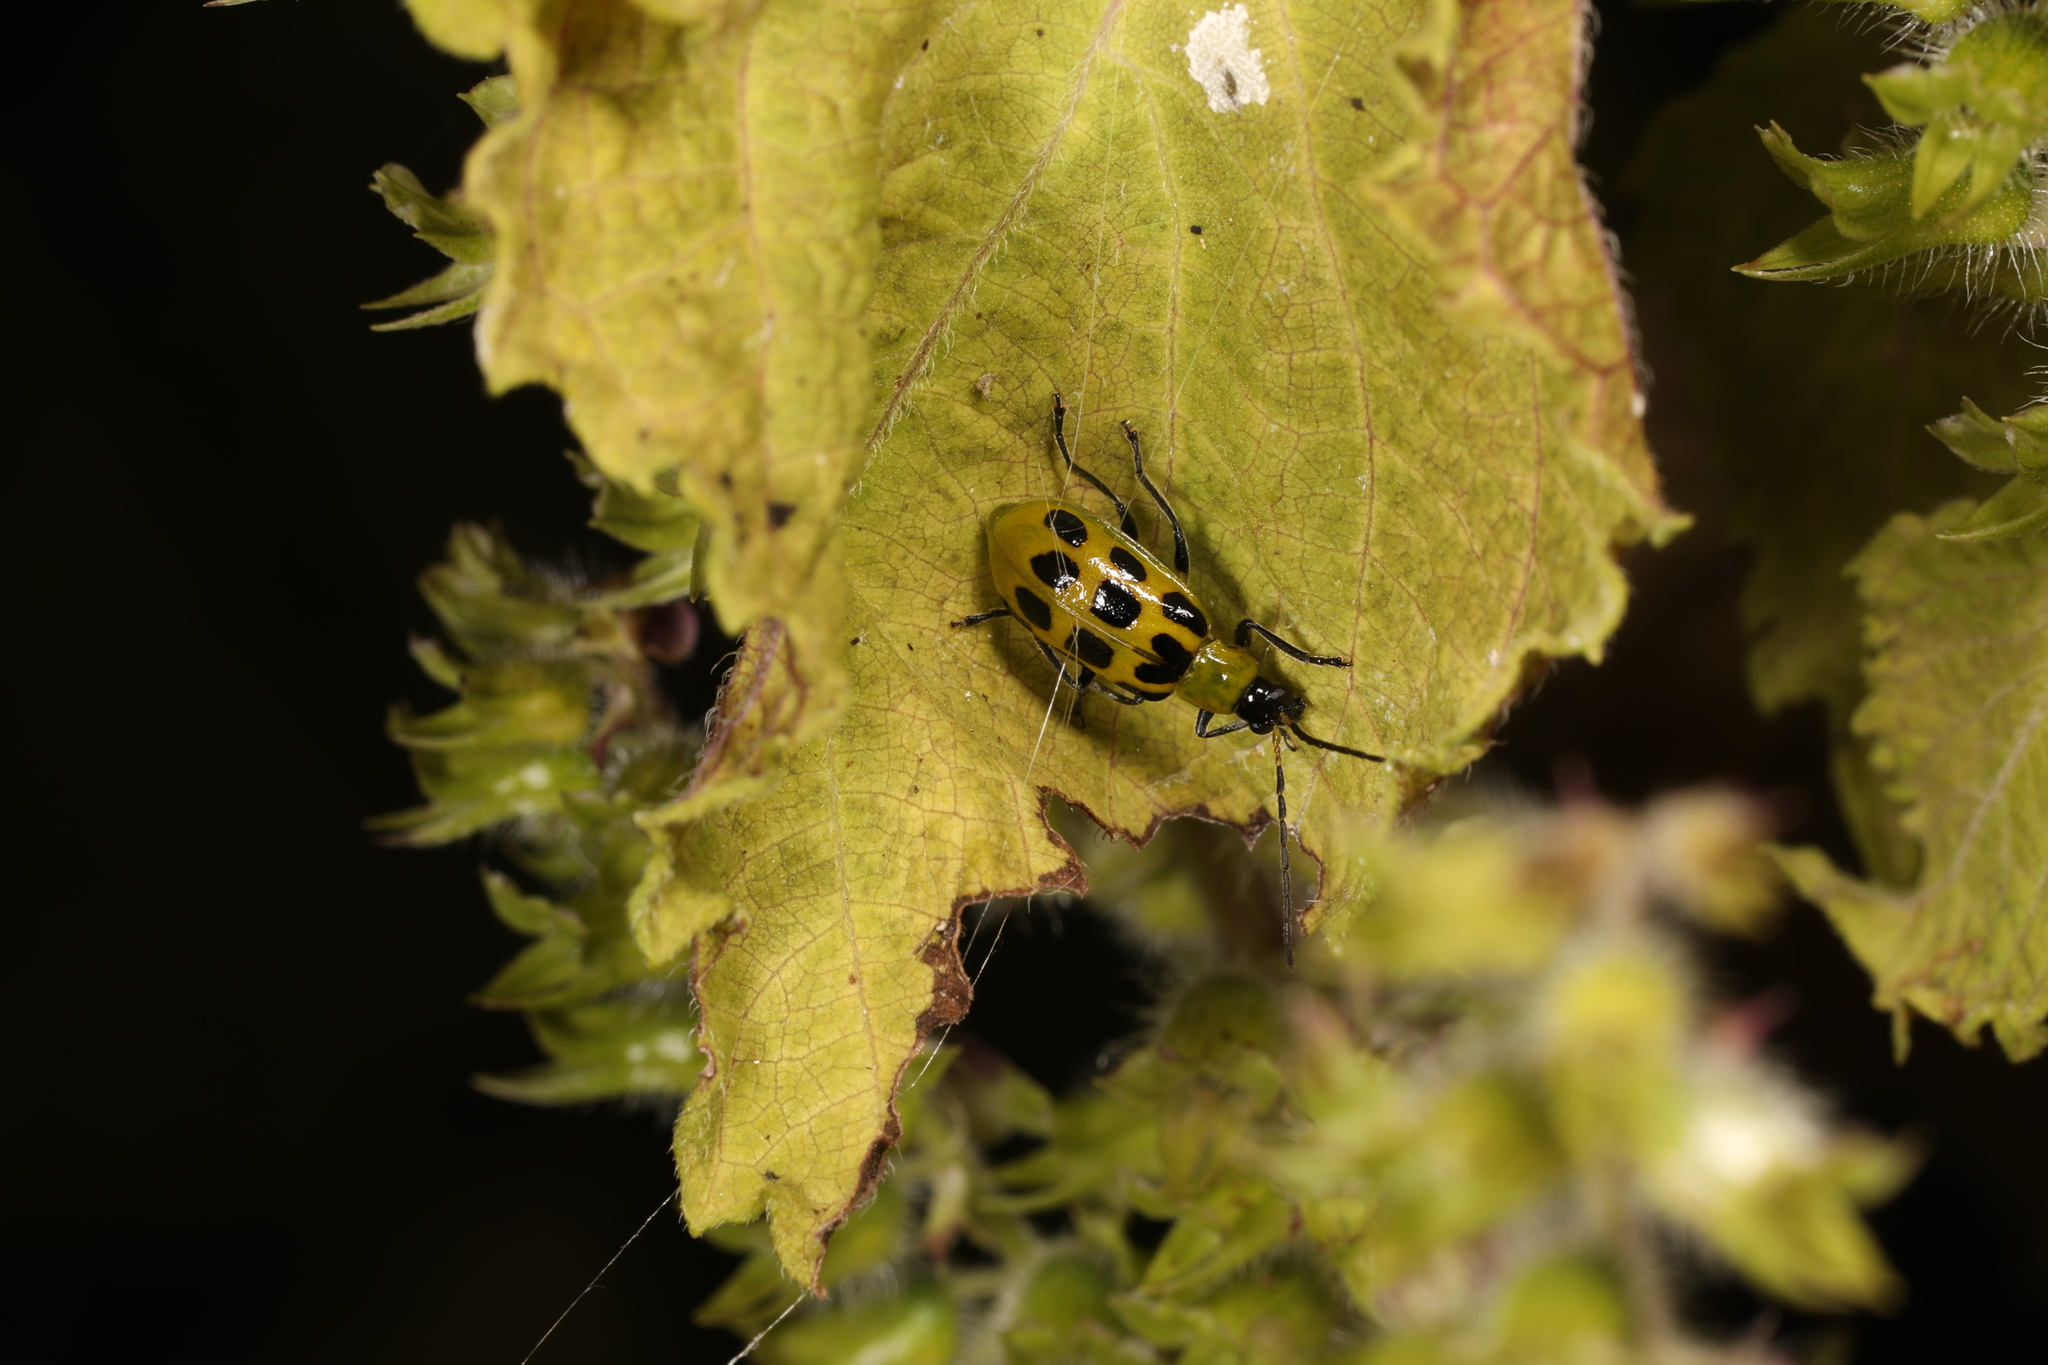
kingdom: Animalia
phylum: Arthropoda
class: Insecta
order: Coleoptera
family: Chrysomelidae
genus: Diabrotica
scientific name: Diabrotica undecimpunctata
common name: Spotted cucumber beetle
